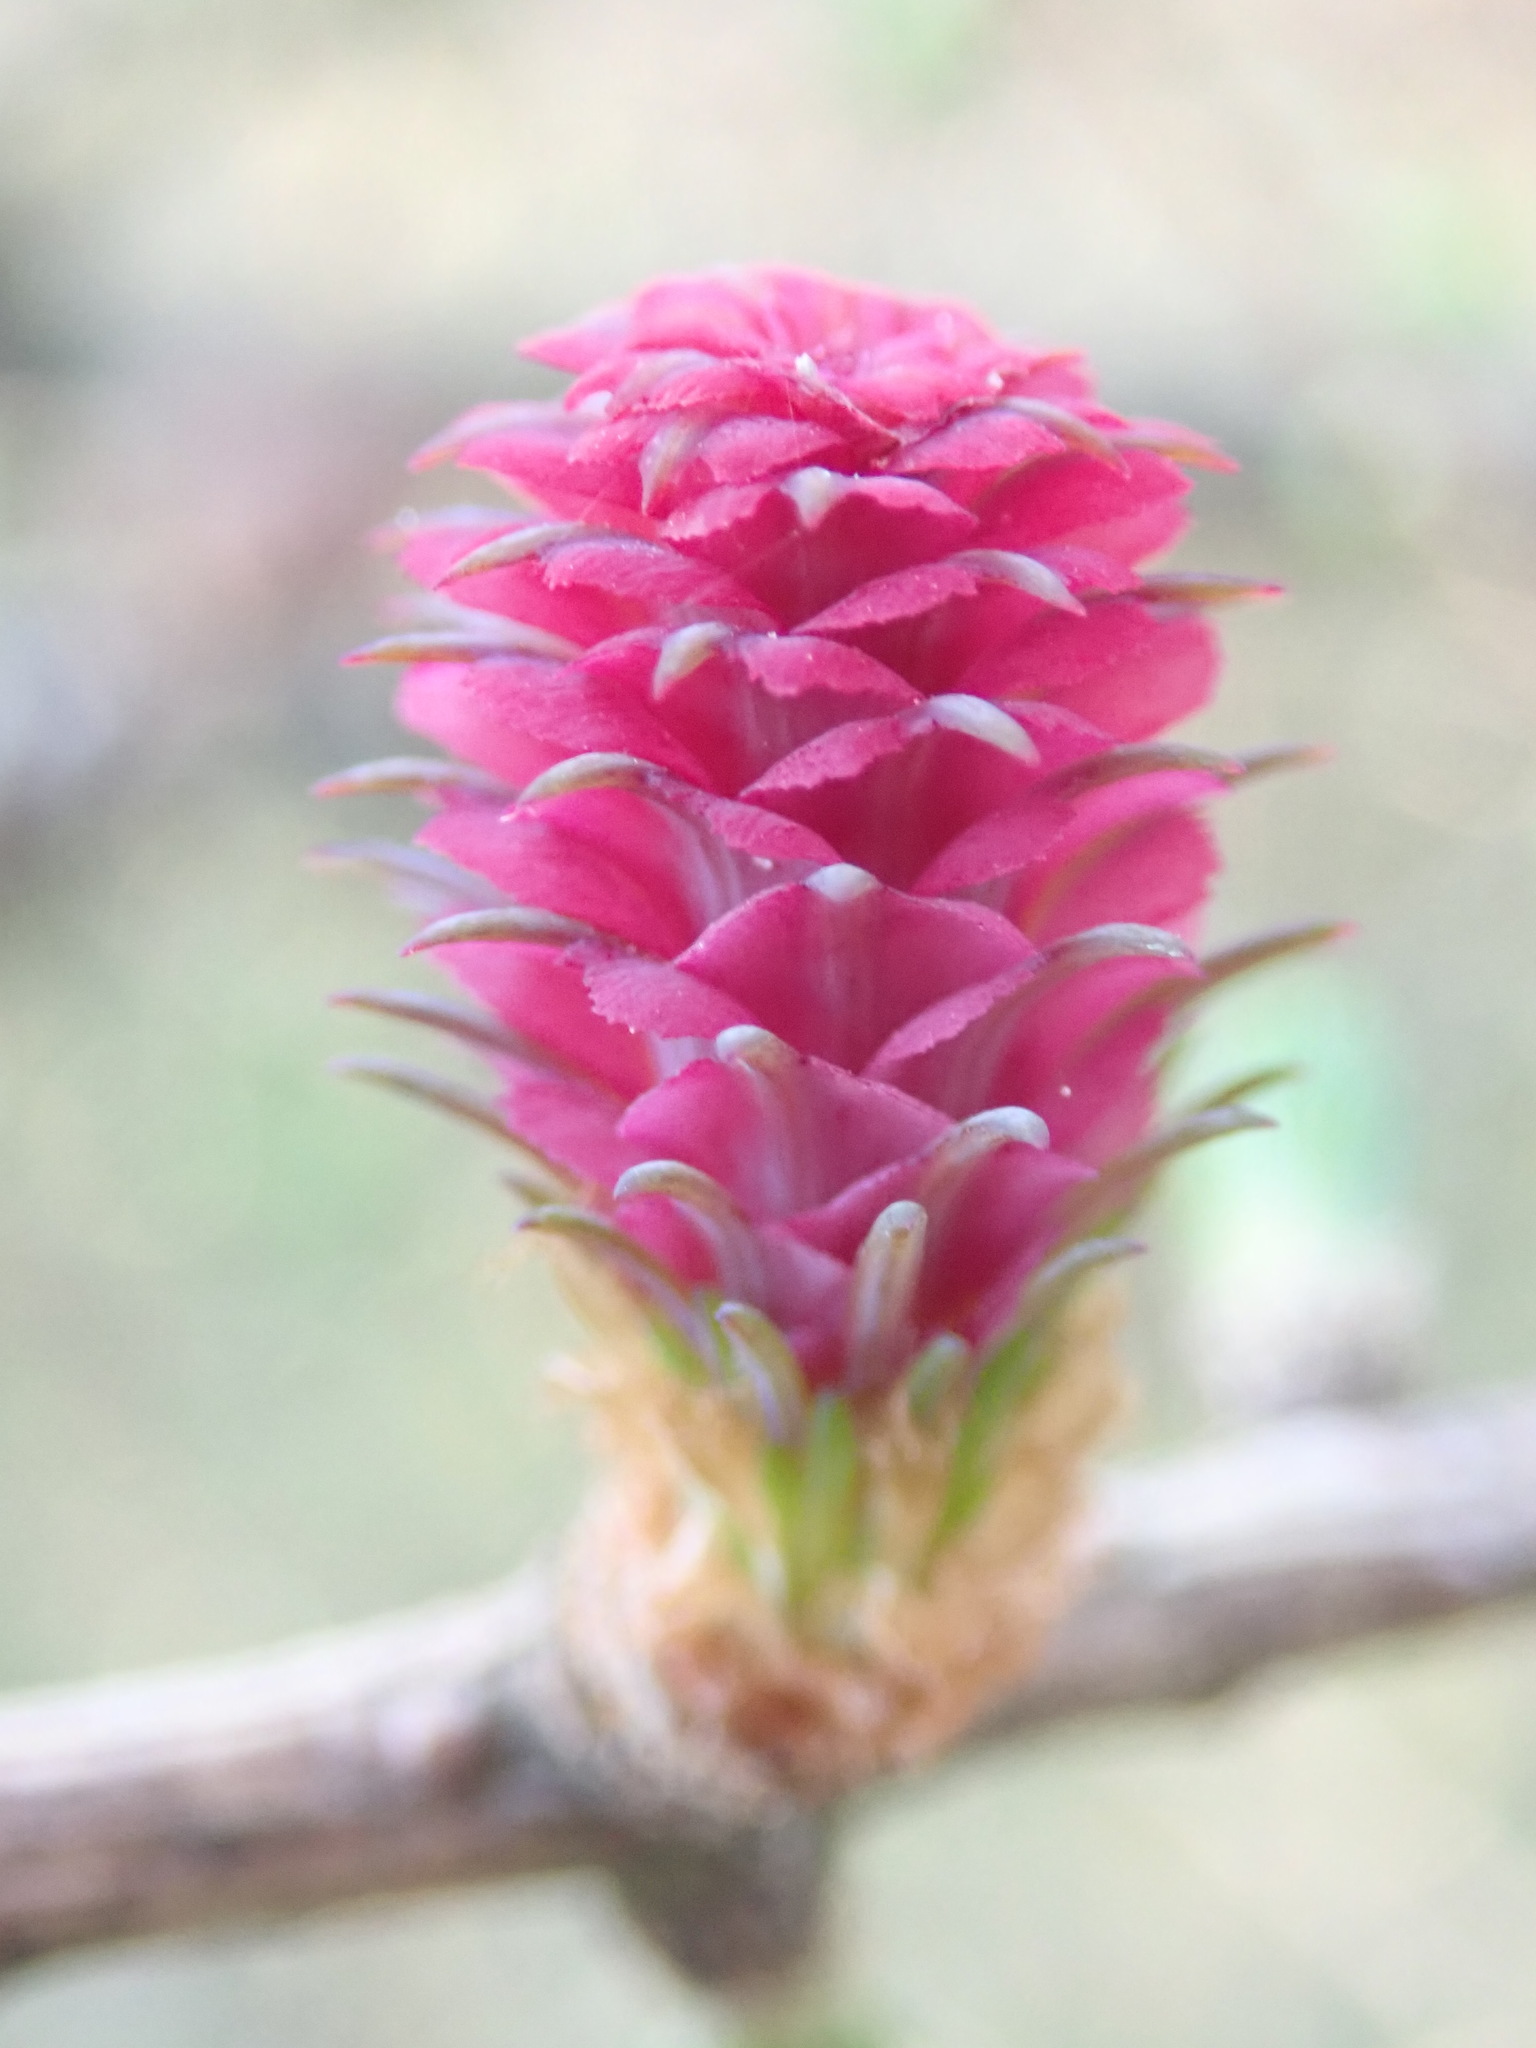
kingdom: Plantae
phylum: Tracheophyta
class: Pinopsida
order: Pinales
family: Pinaceae
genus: Larix
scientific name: Larix decidua
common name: European larch
